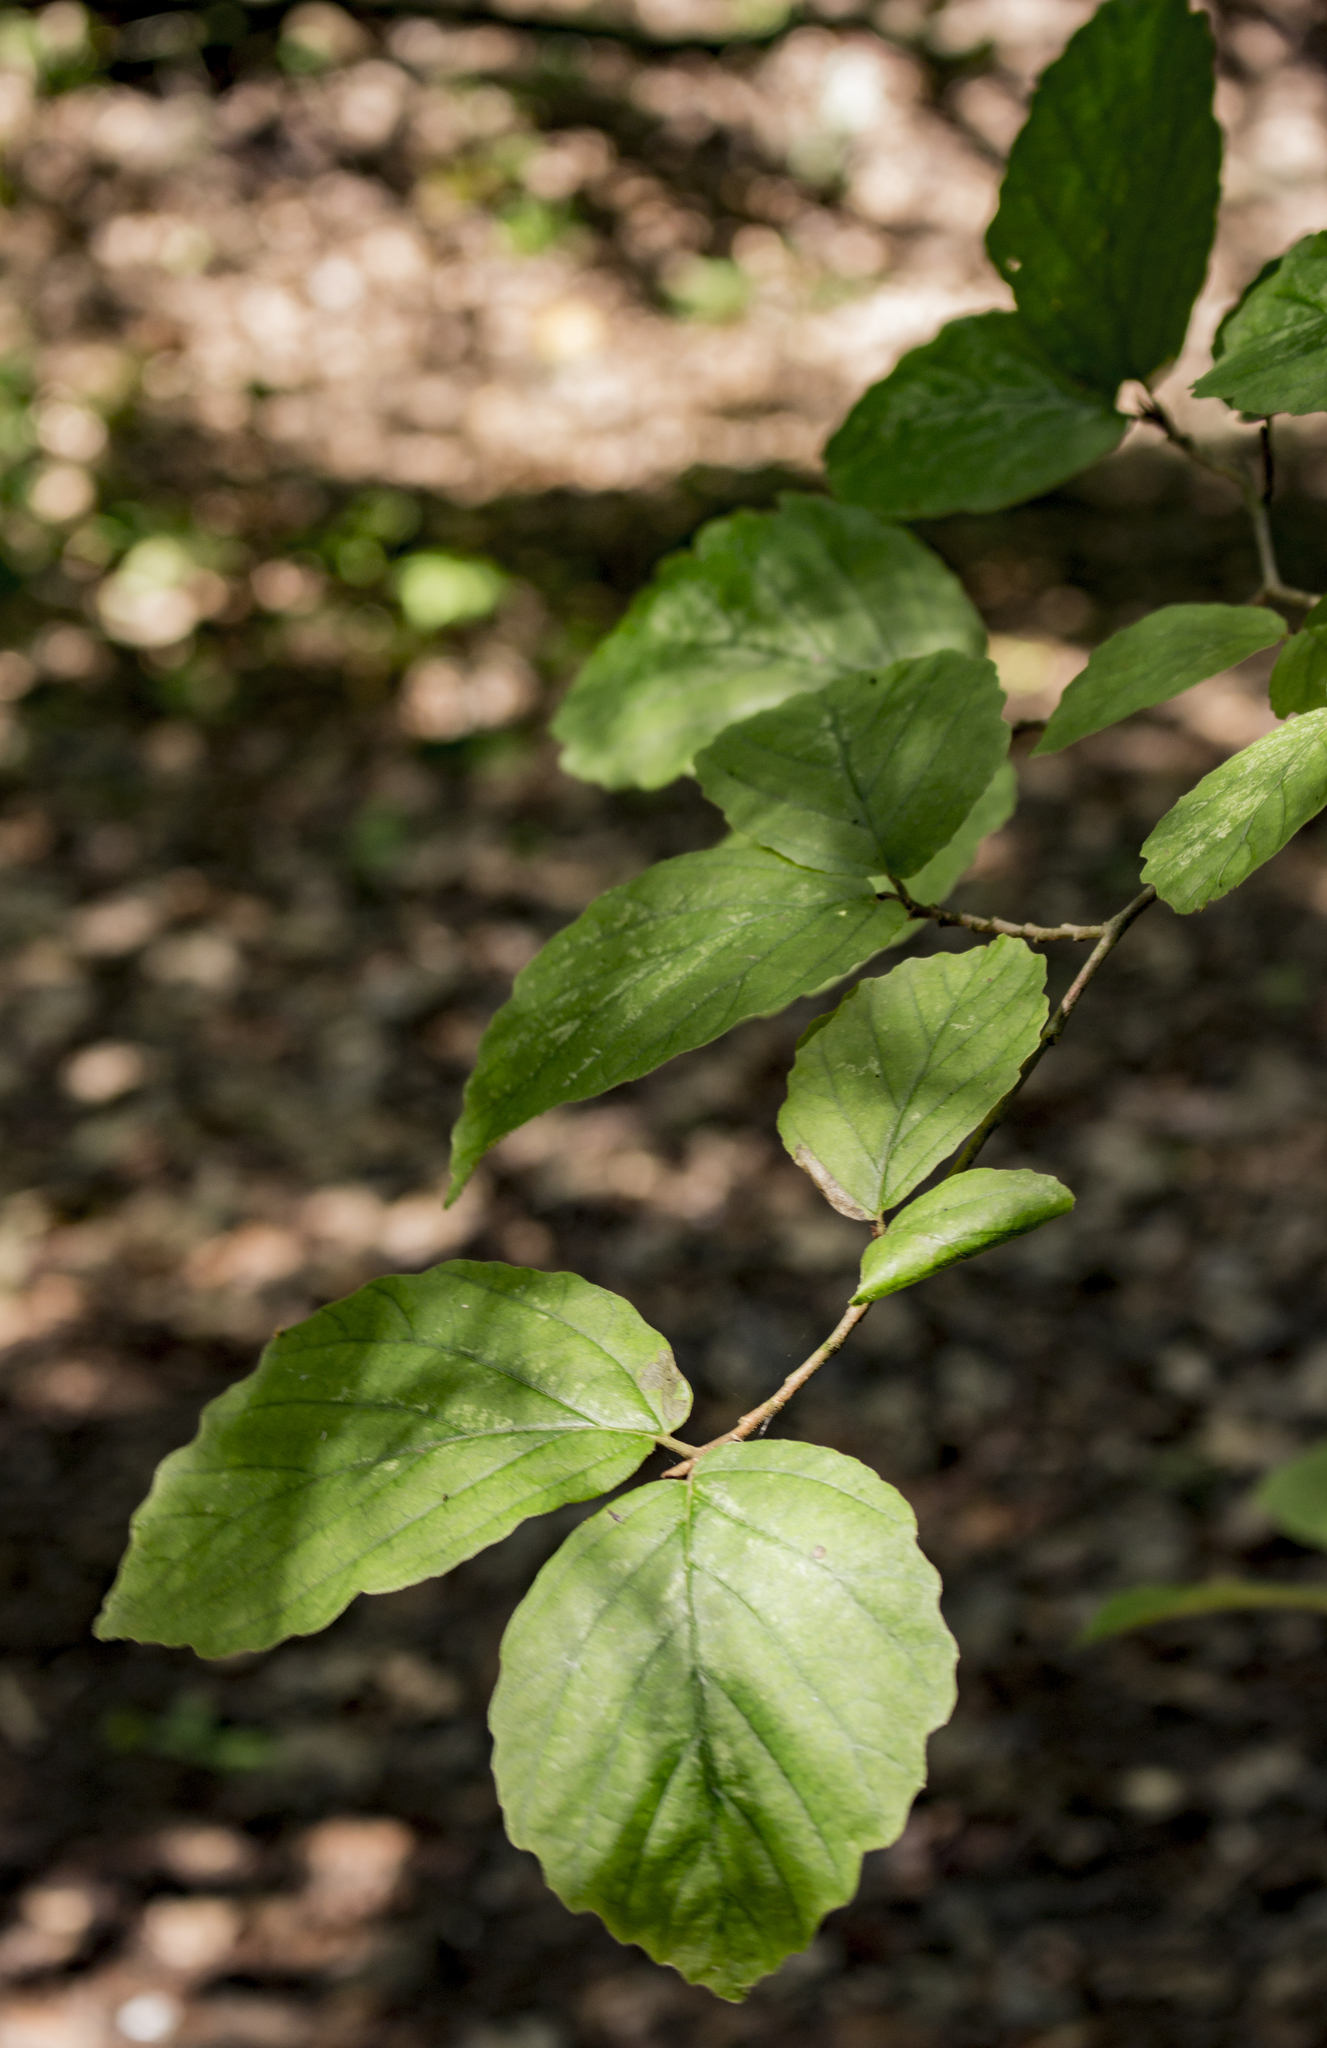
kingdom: Plantae
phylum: Tracheophyta
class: Magnoliopsida
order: Saxifragales
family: Hamamelidaceae
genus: Hamamelis
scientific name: Hamamelis virginiana
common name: Witch-hazel
